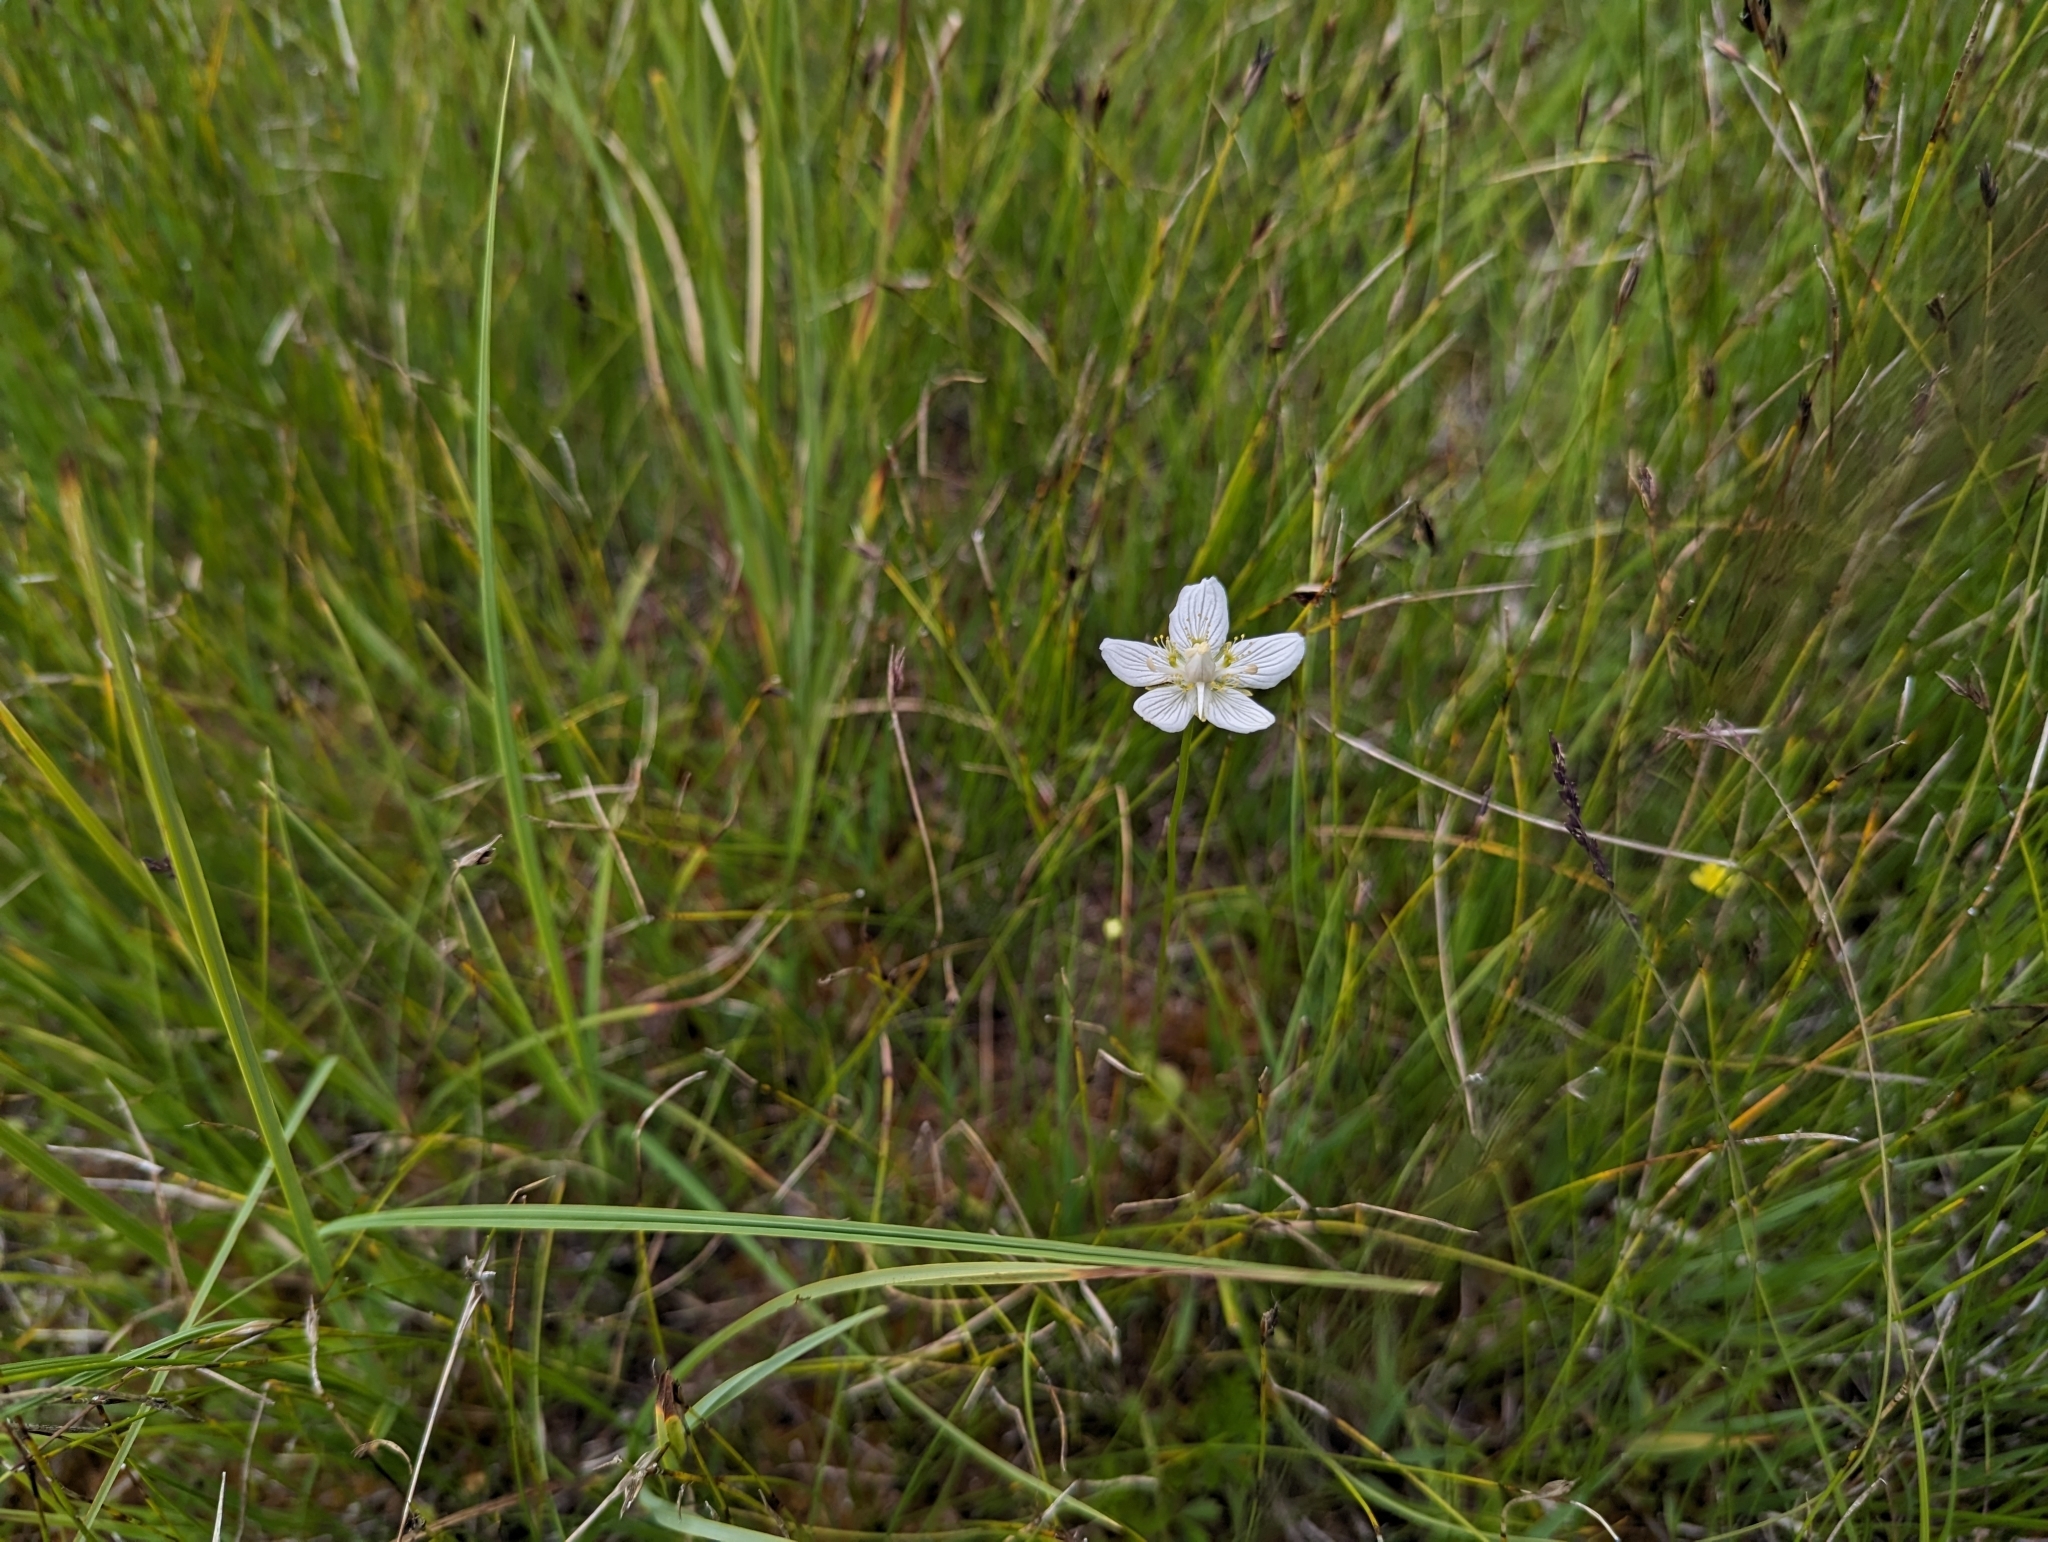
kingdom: Plantae
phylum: Tracheophyta
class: Magnoliopsida
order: Celastrales
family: Parnassiaceae
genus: Parnassia
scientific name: Parnassia palustris
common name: Grass-of-parnassus
